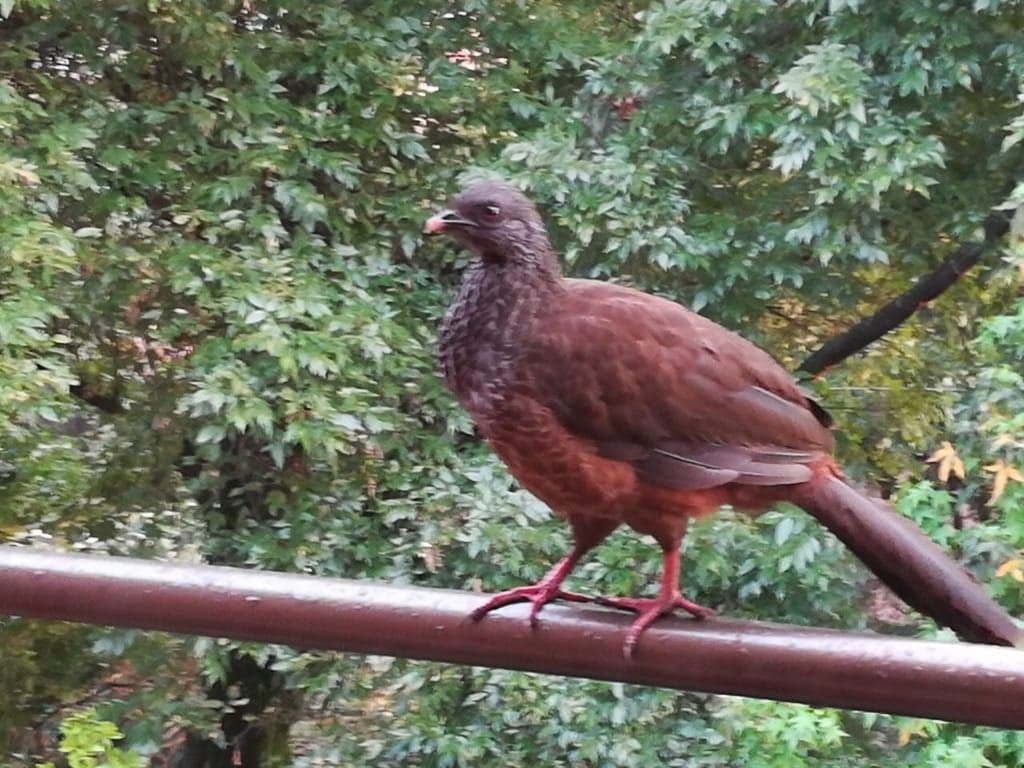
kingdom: Animalia
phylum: Chordata
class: Aves
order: Galliformes
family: Cracidae
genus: Penelope
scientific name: Penelope montagnii
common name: Andean guan
